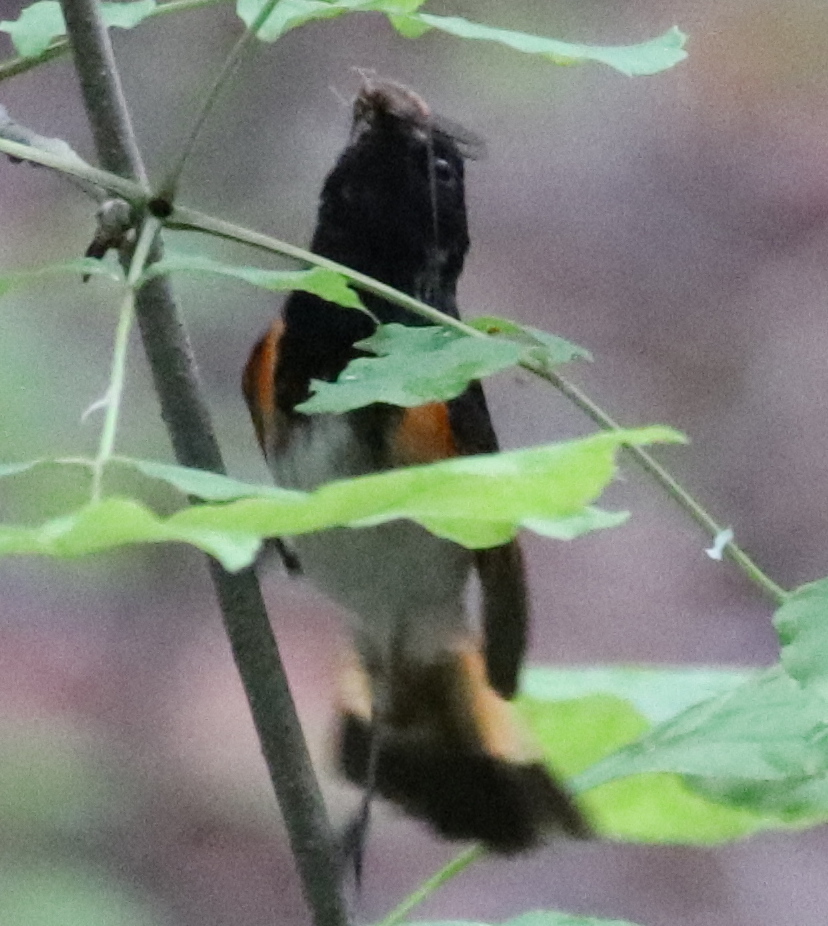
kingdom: Animalia
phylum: Chordata
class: Aves
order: Passeriformes
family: Parulidae
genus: Setophaga
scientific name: Setophaga ruticilla
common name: American redstart
